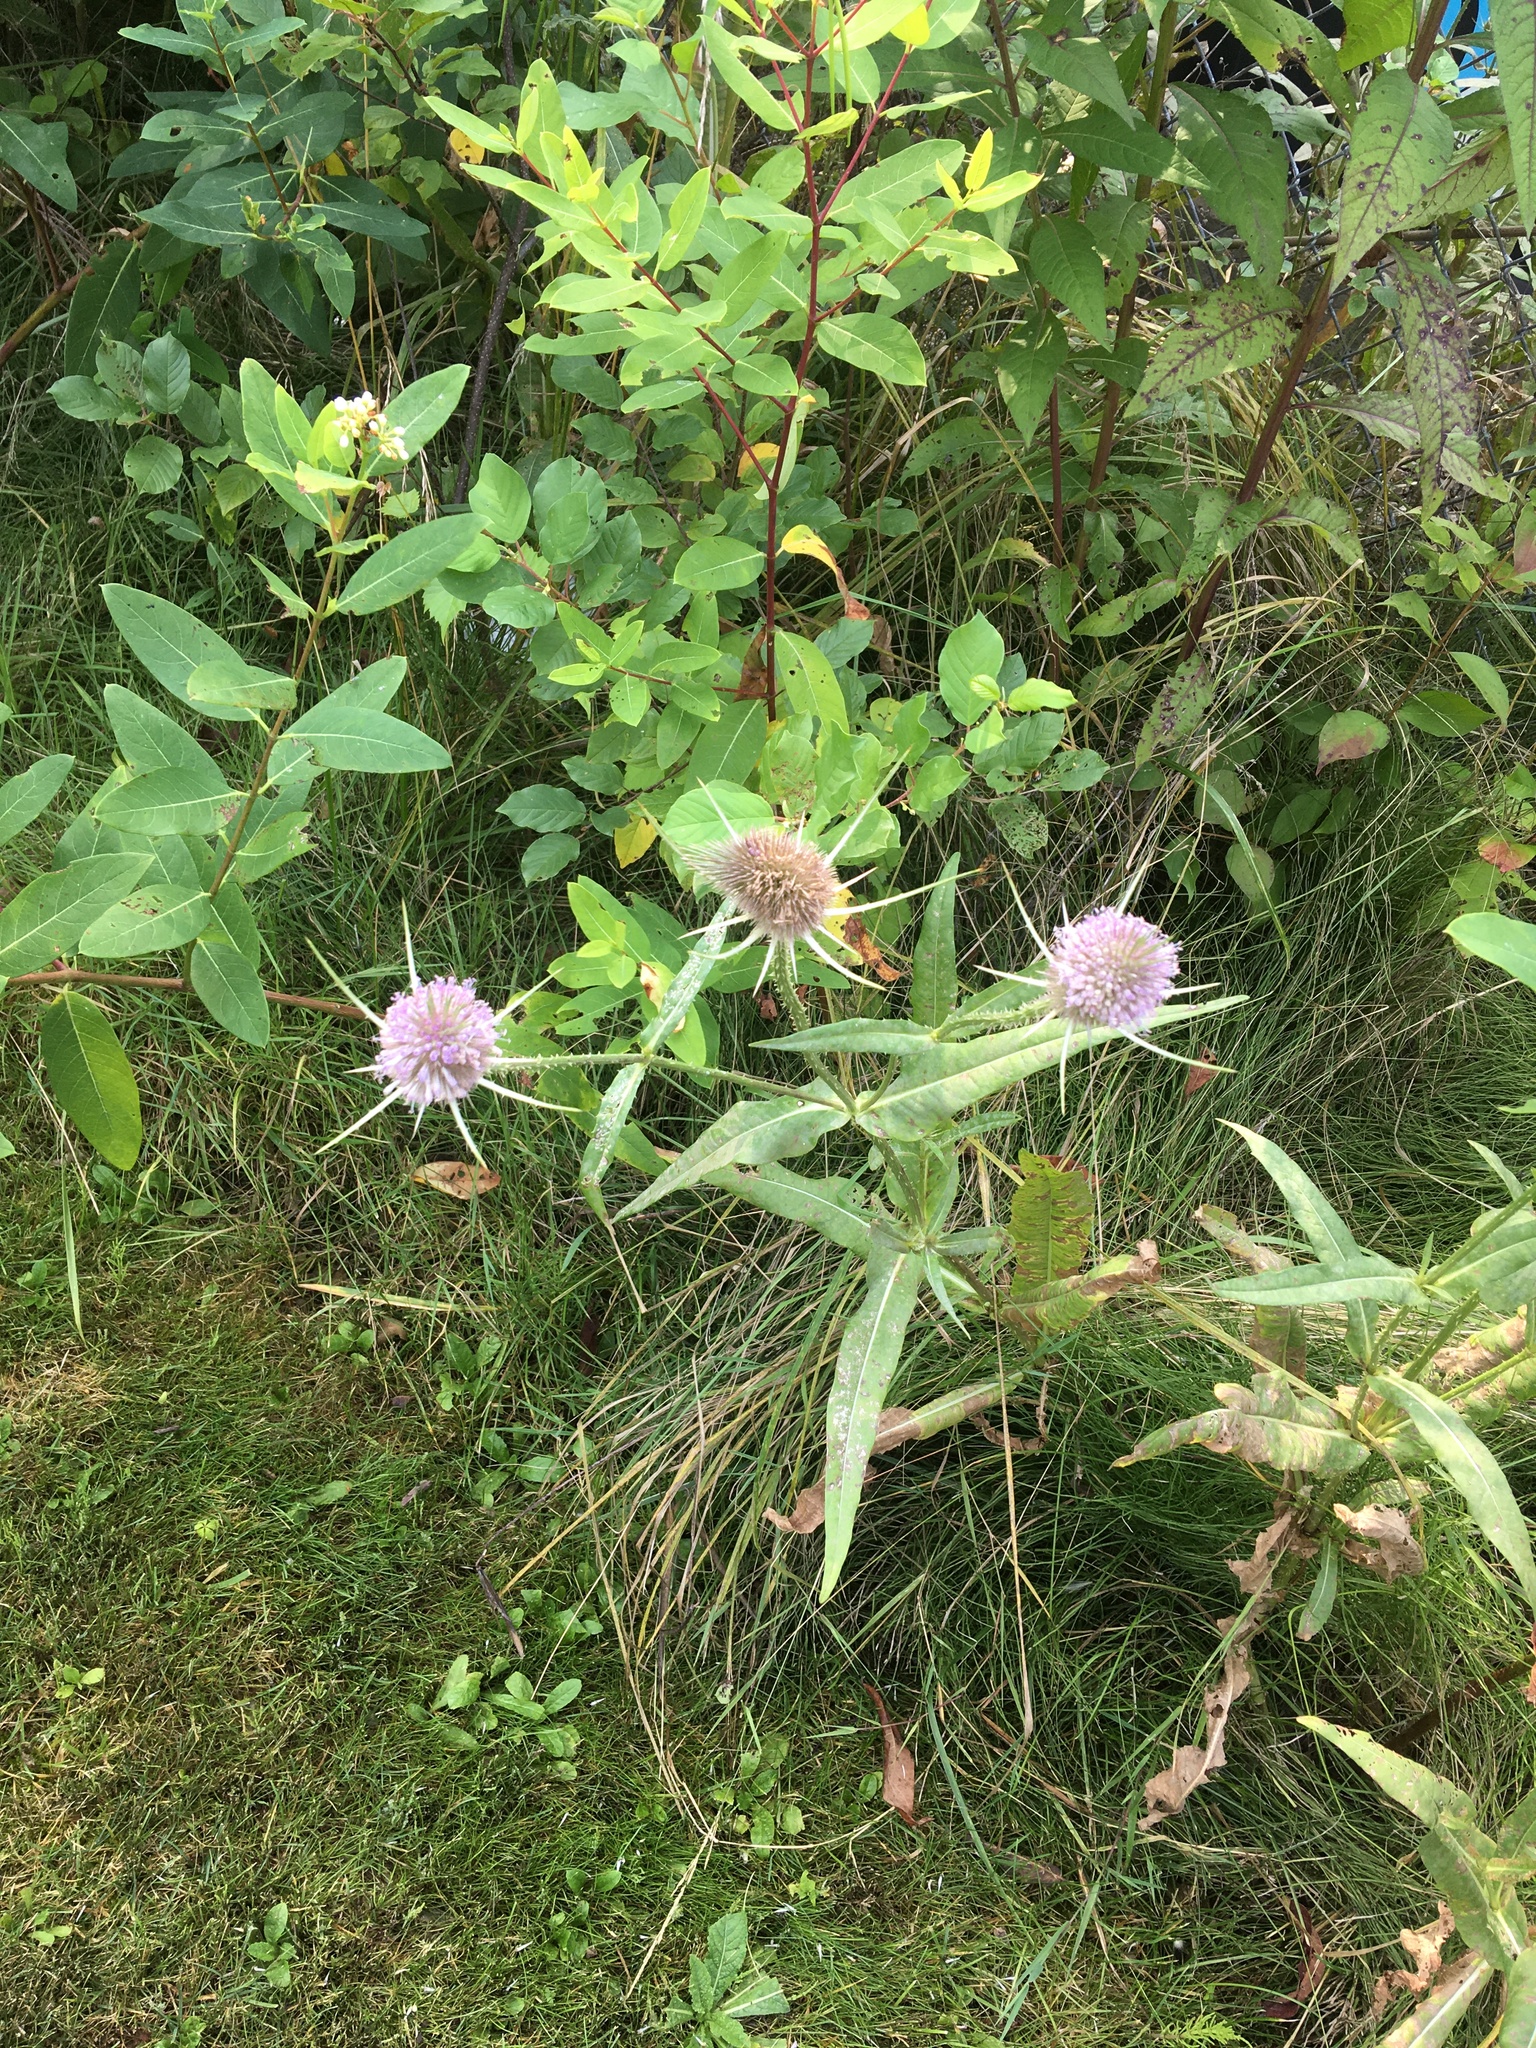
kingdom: Plantae
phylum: Tracheophyta
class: Magnoliopsida
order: Dipsacales
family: Caprifoliaceae
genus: Dipsacus
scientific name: Dipsacus fullonum
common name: Teasel
